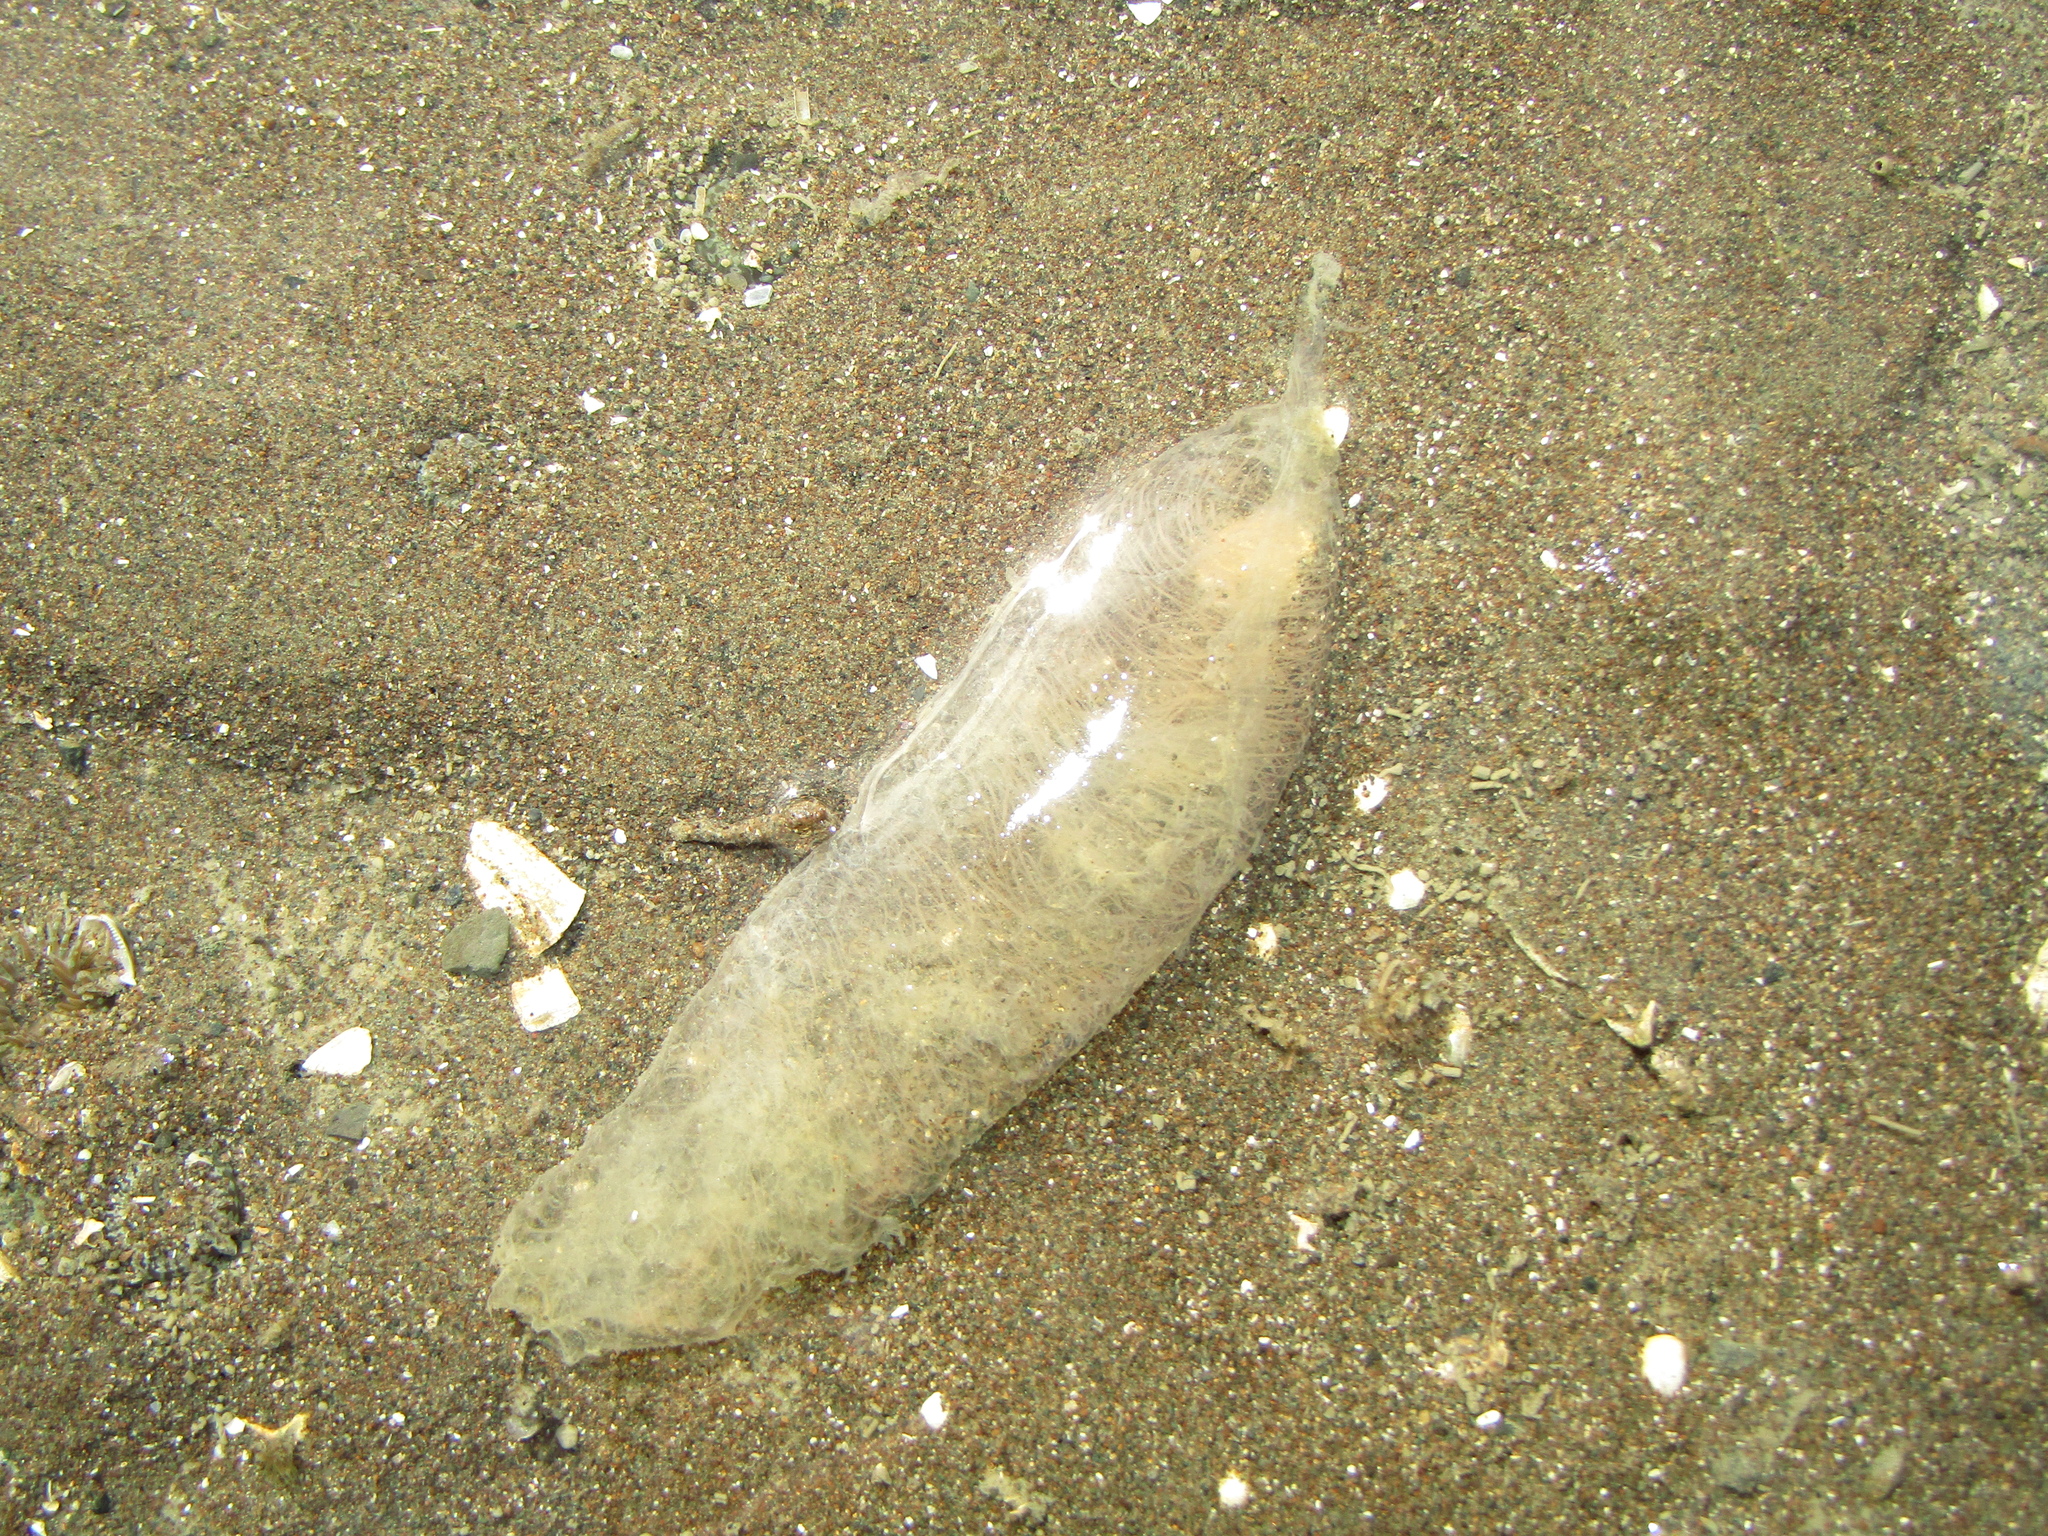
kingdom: Animalia
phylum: Mollusca
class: Gastropoda
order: Cephalaspidea
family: Philinidae
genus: Philine
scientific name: Philine
